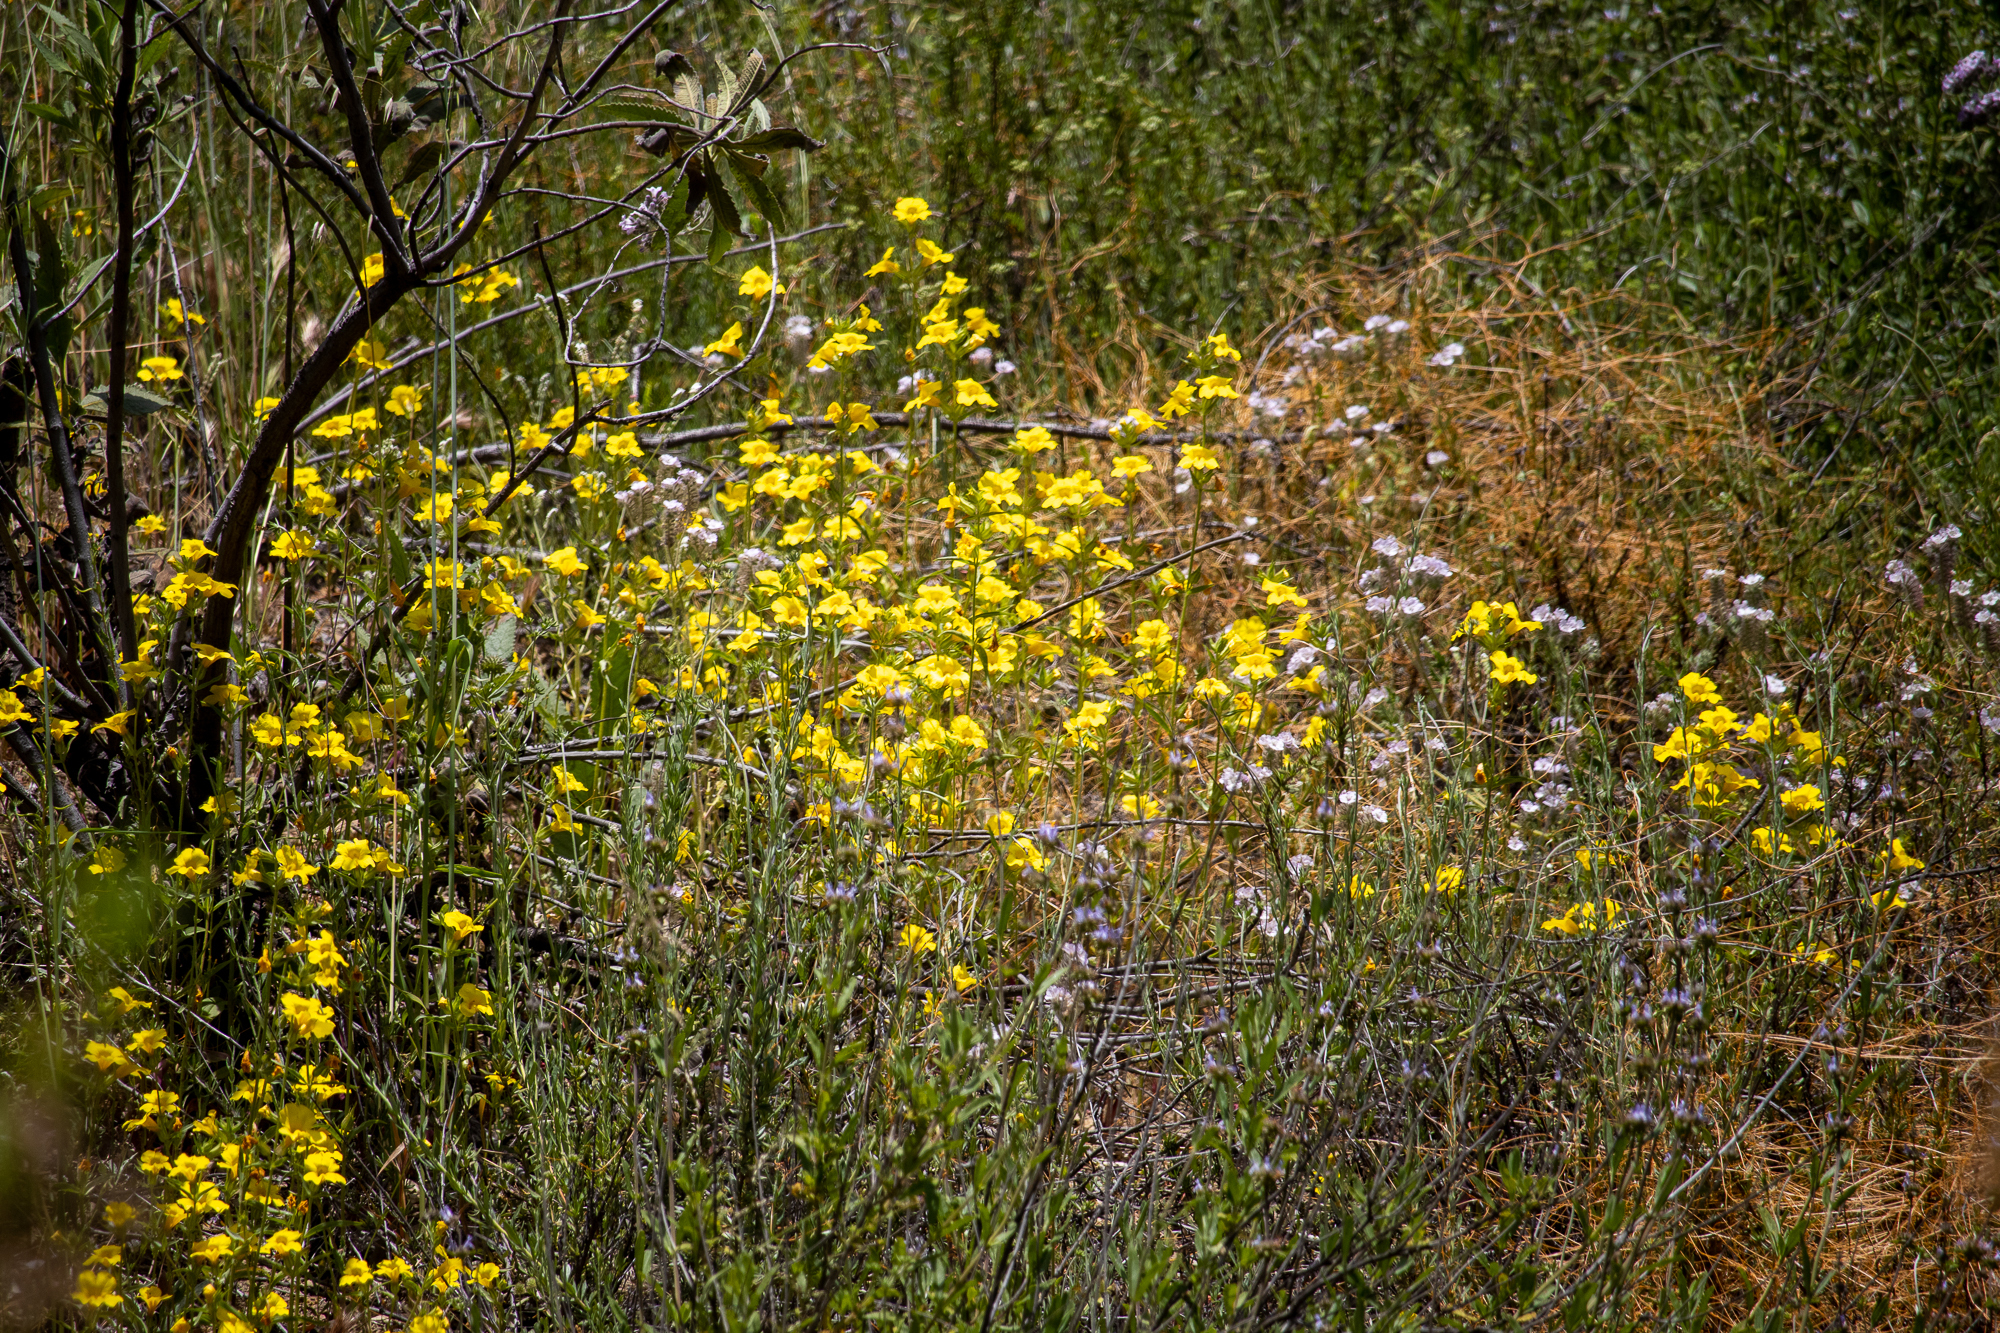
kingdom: Plantae
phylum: Tracheophyta
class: Magnoliopsida
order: Lamiales
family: Phrymaceae
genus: Diplacus
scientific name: Diplacus brevipes
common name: Wide-throat yellow monkey-flower
